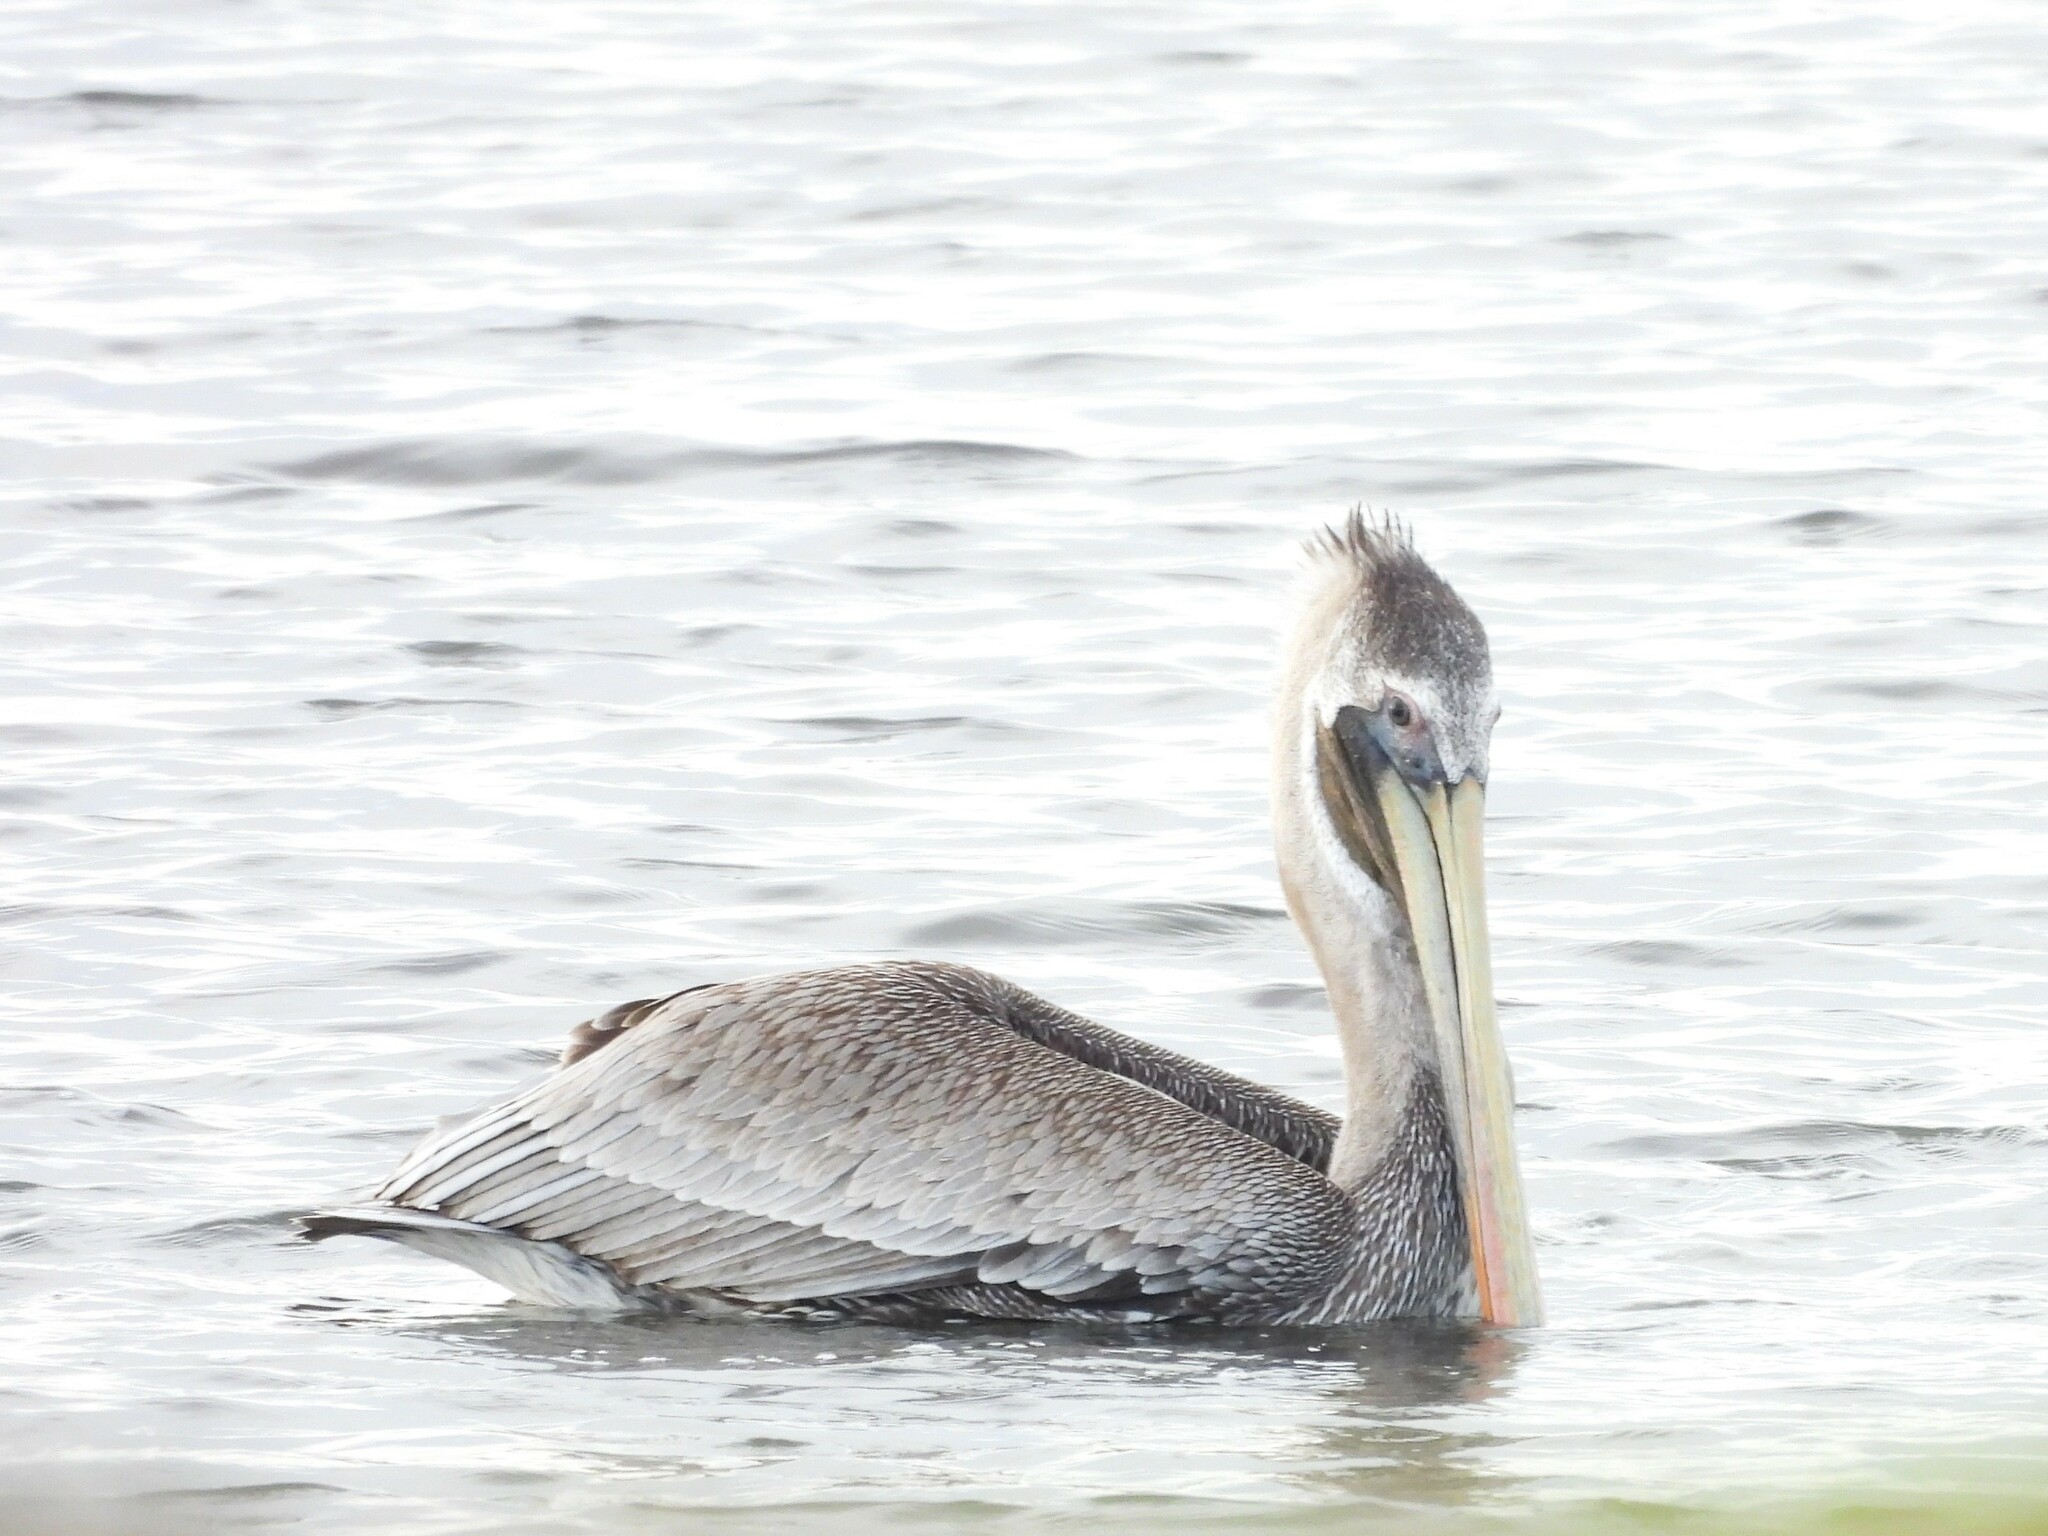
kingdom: Animalia
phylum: Chordata
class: Aves
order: Pelecaniformes
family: Pelecanidae
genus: Pelecanus
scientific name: Pelecanus occidentalis
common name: Brown pelican
